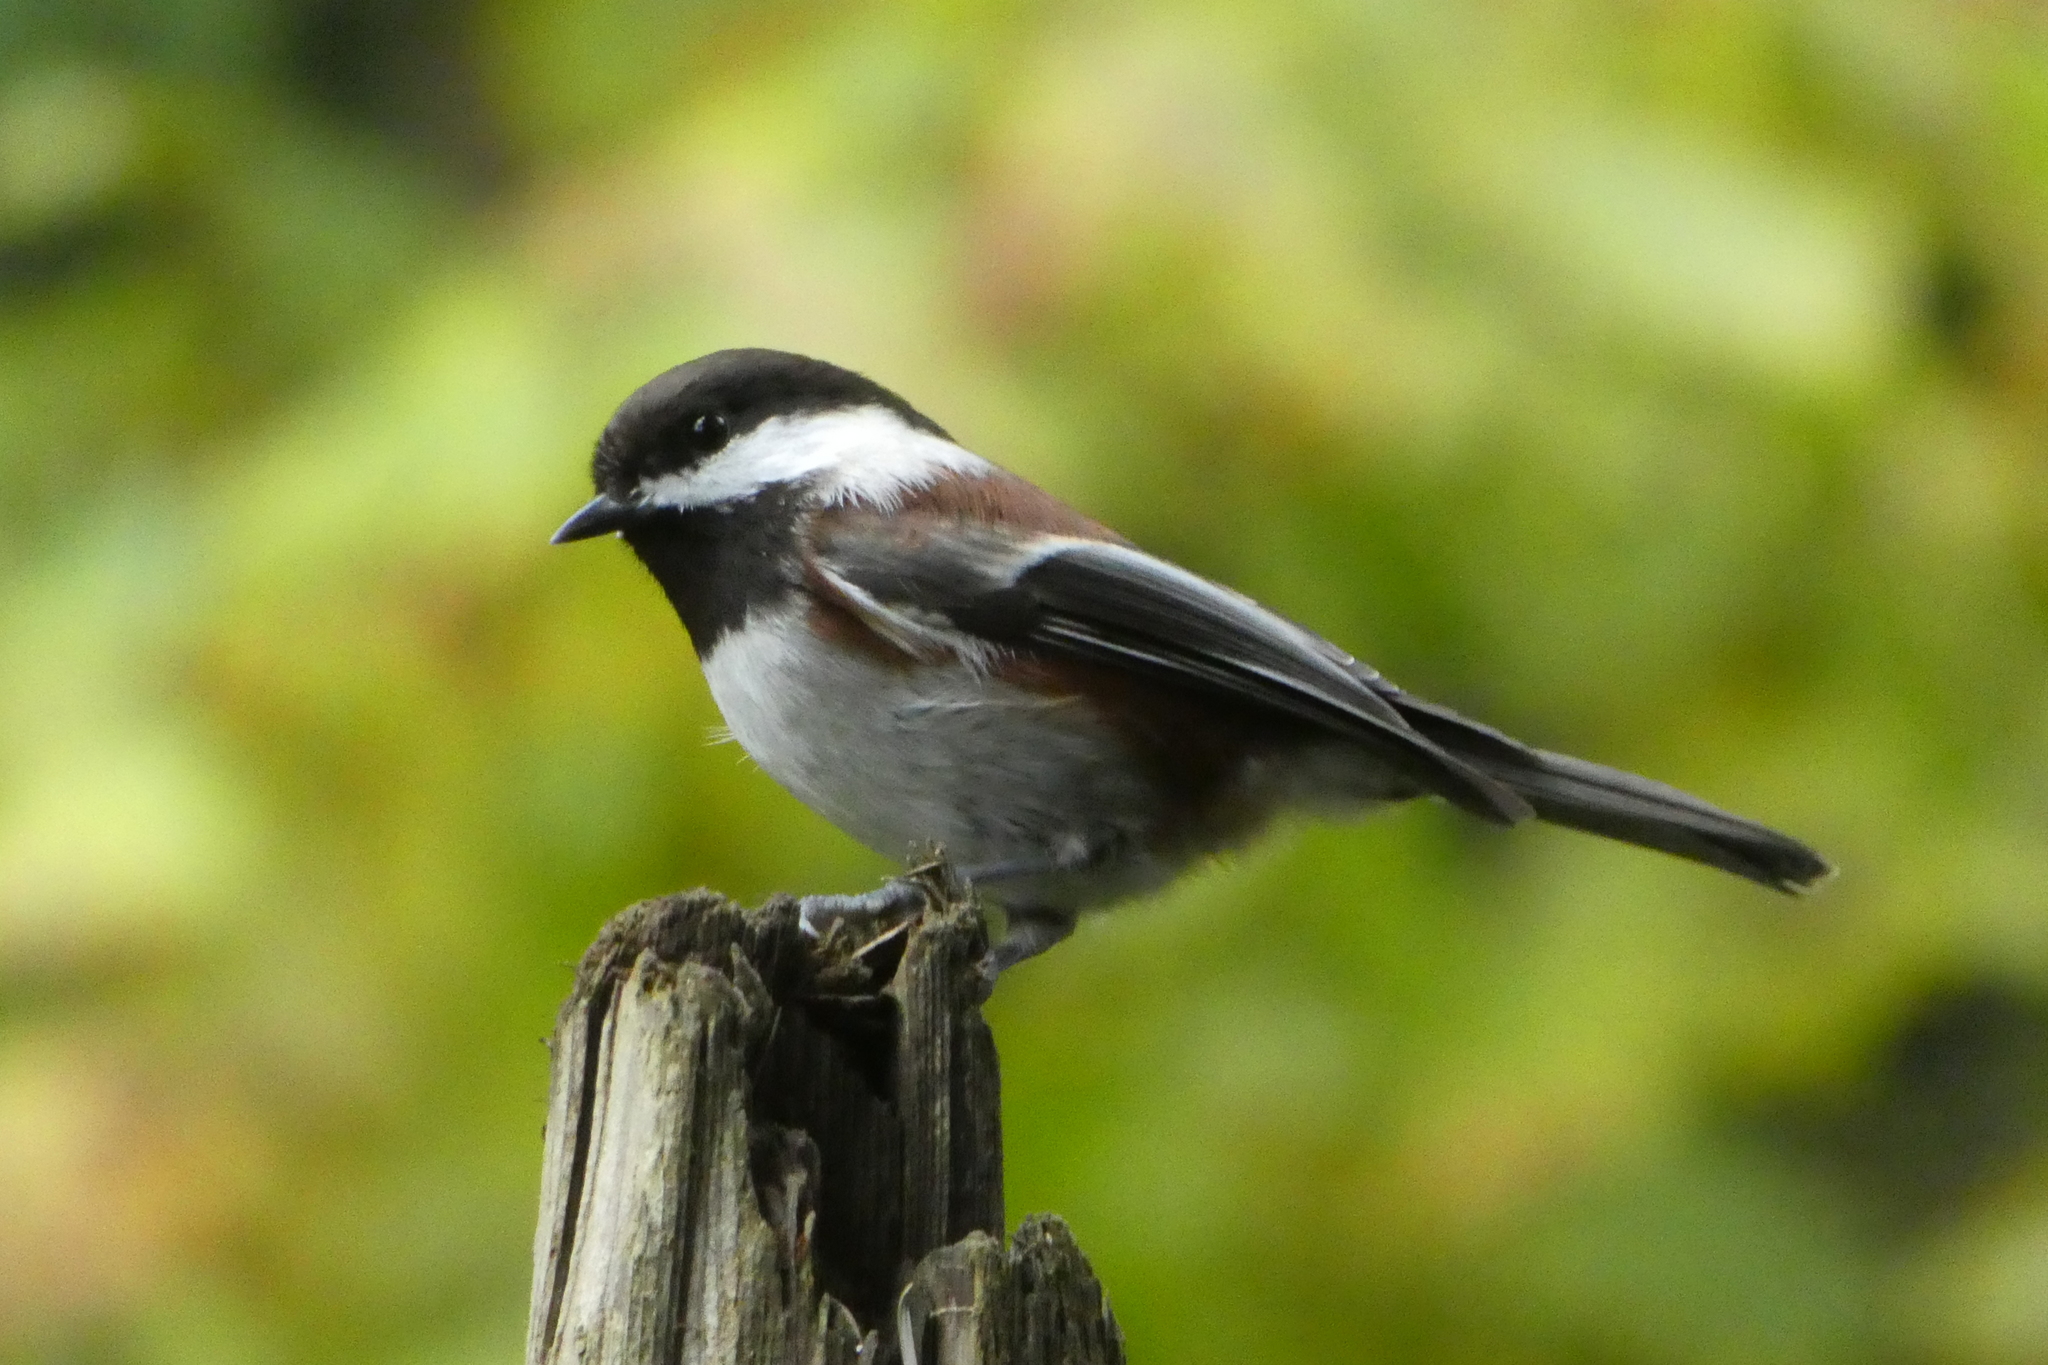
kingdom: Animalia
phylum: Chordata
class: Aves
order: Passeriformes
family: Paridae
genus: Poecile
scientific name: Poecile rufescens
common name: Chestnut-backed chickadee
